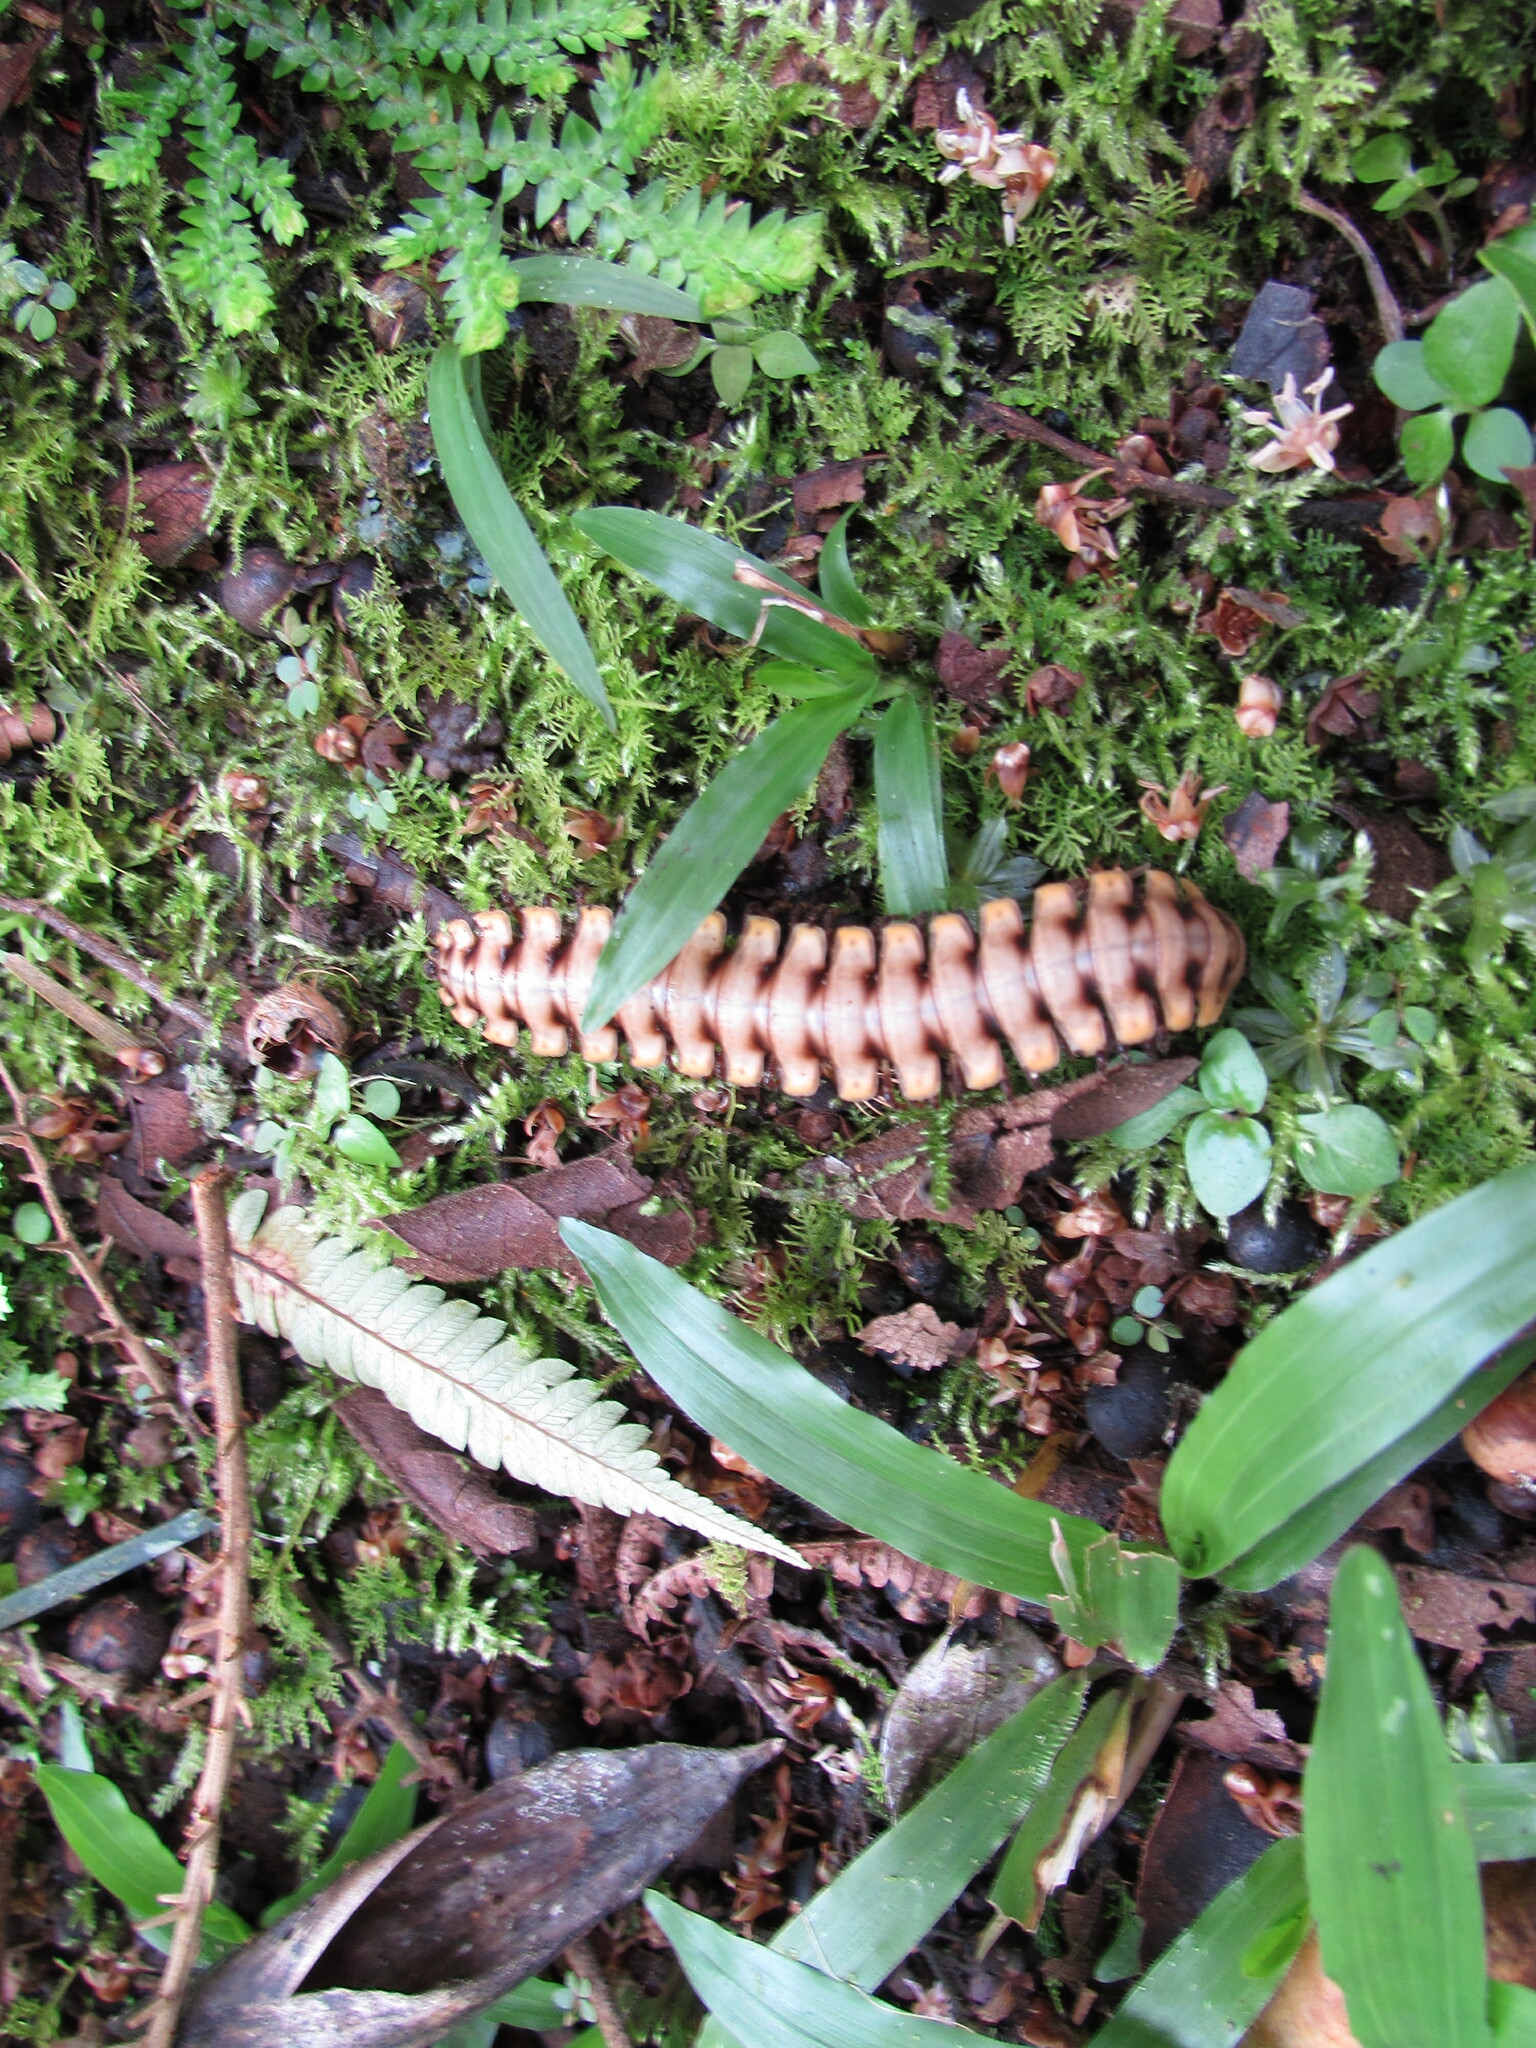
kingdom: Animalia
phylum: Arthropoda
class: Diplopoda
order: Polydesmida
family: Platyrhacidae
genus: Nyssodesmus
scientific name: Nyssodesmus python
